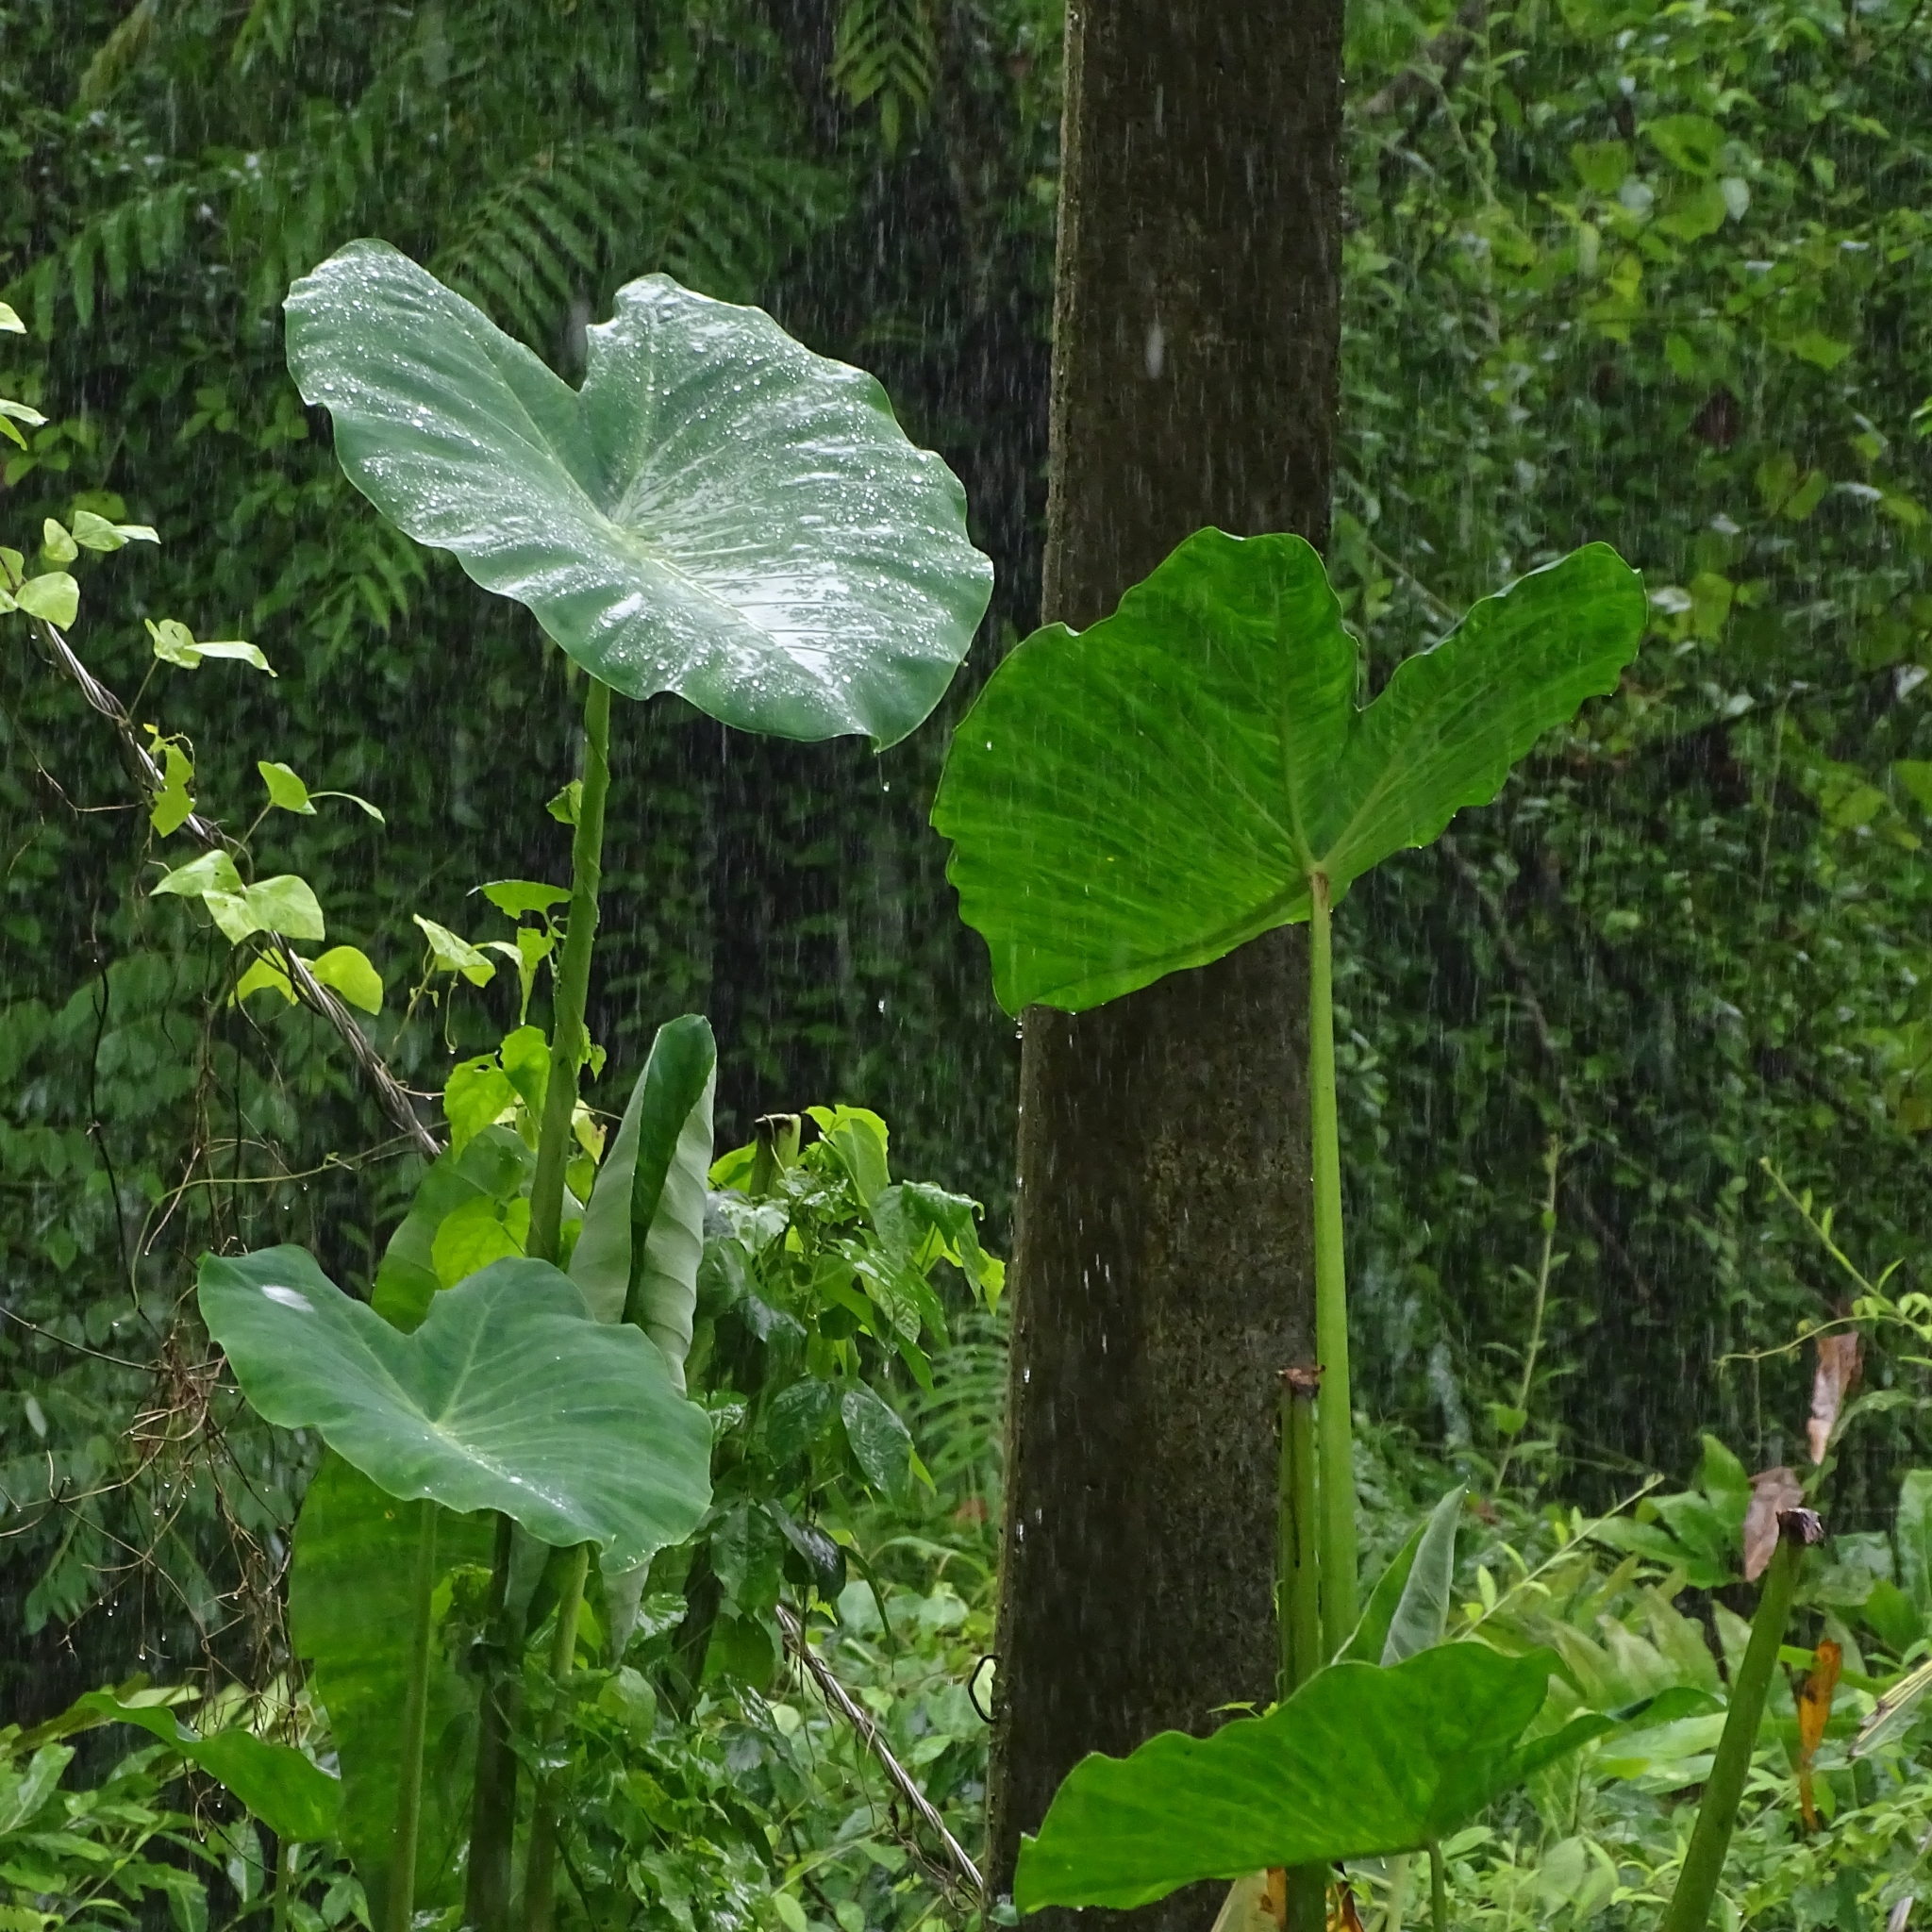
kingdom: Plantae
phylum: Tracheophyta
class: Liliopsida
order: Alismatales
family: Araceae
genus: Colocasia
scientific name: Colocasia esculenta
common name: Taro
